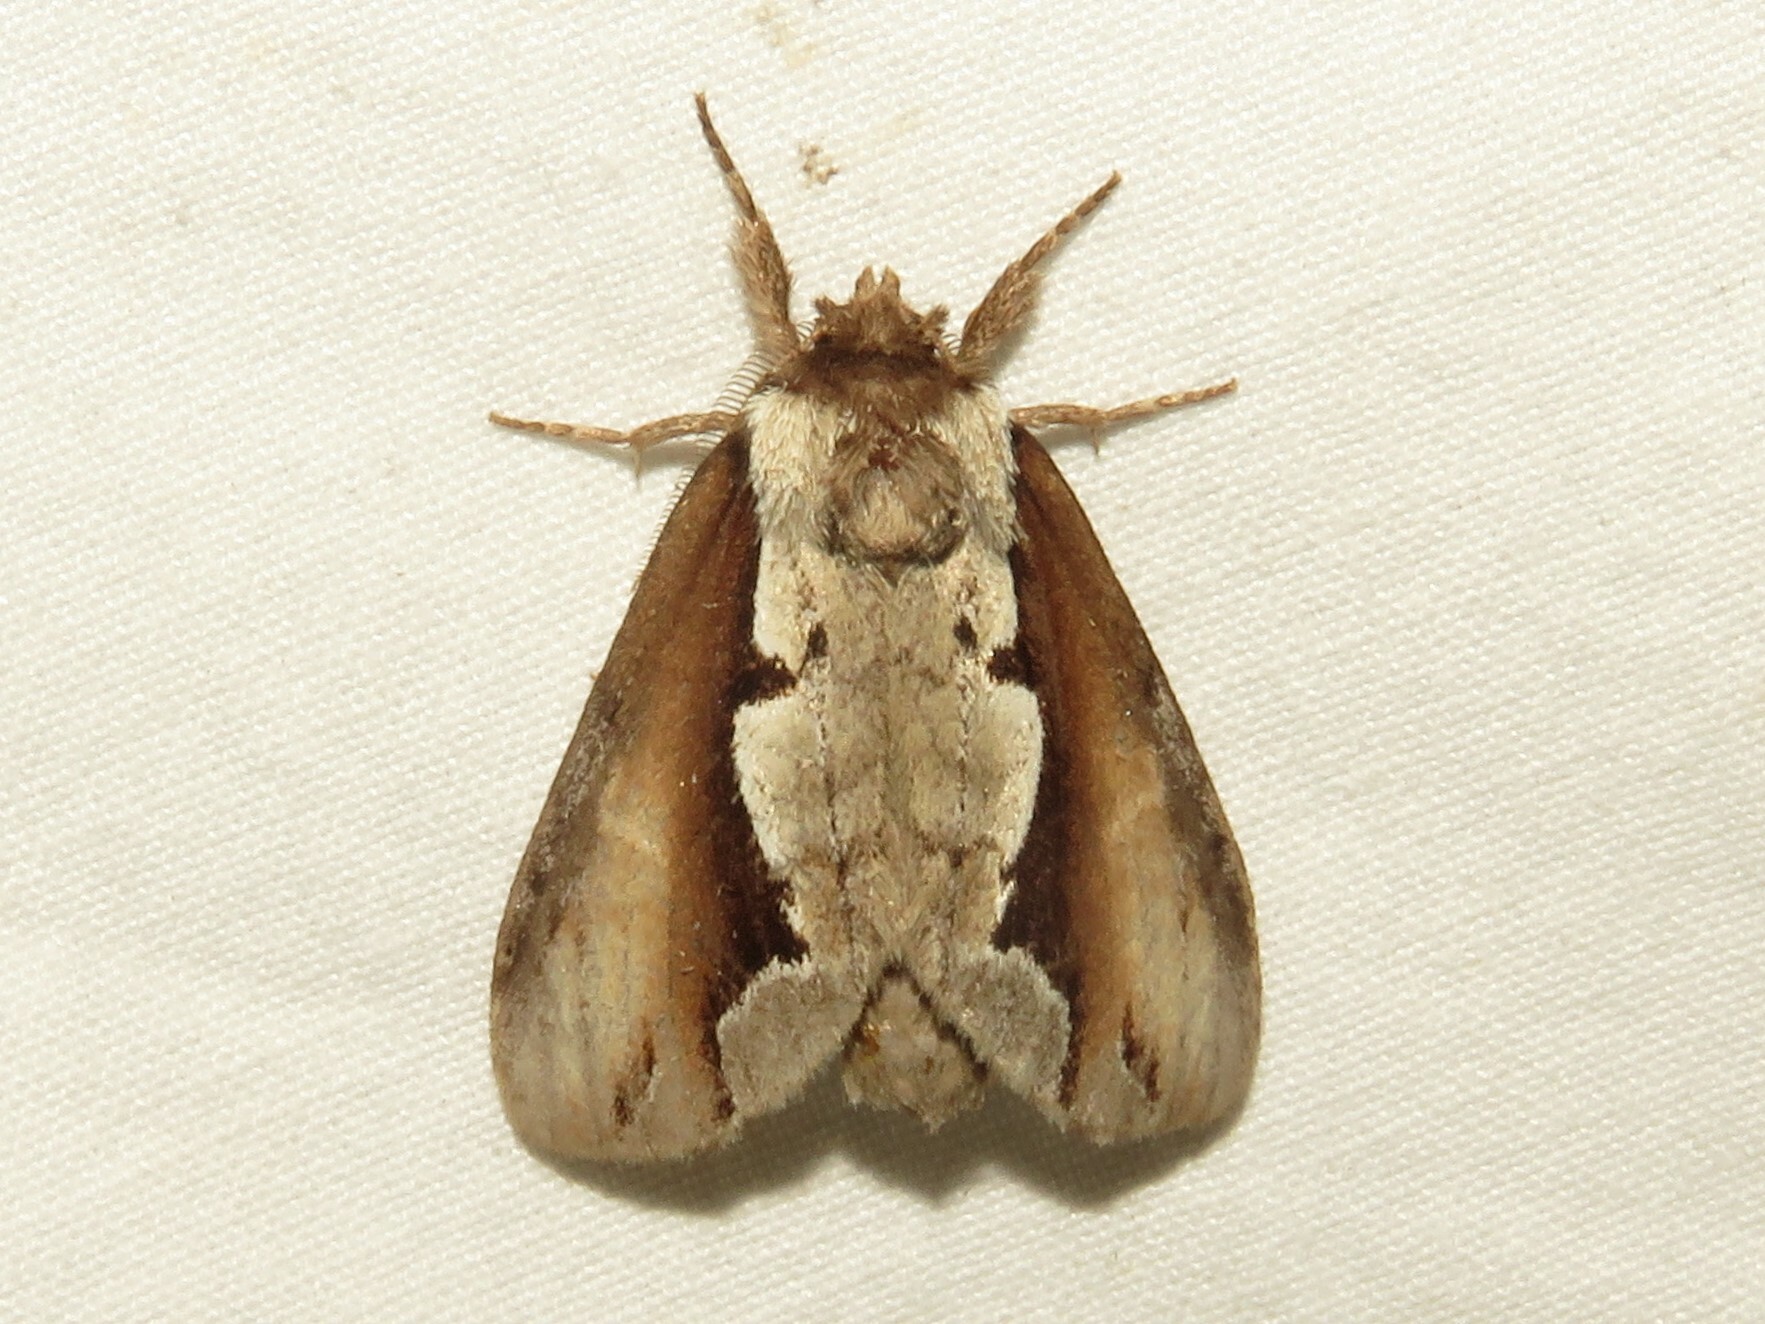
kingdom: Animalia
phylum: Arthropoda
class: Insecta
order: Lepidoptera
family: Notodontidae
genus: Nerice
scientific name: Nerice bidentata
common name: Double-toothed prominent
